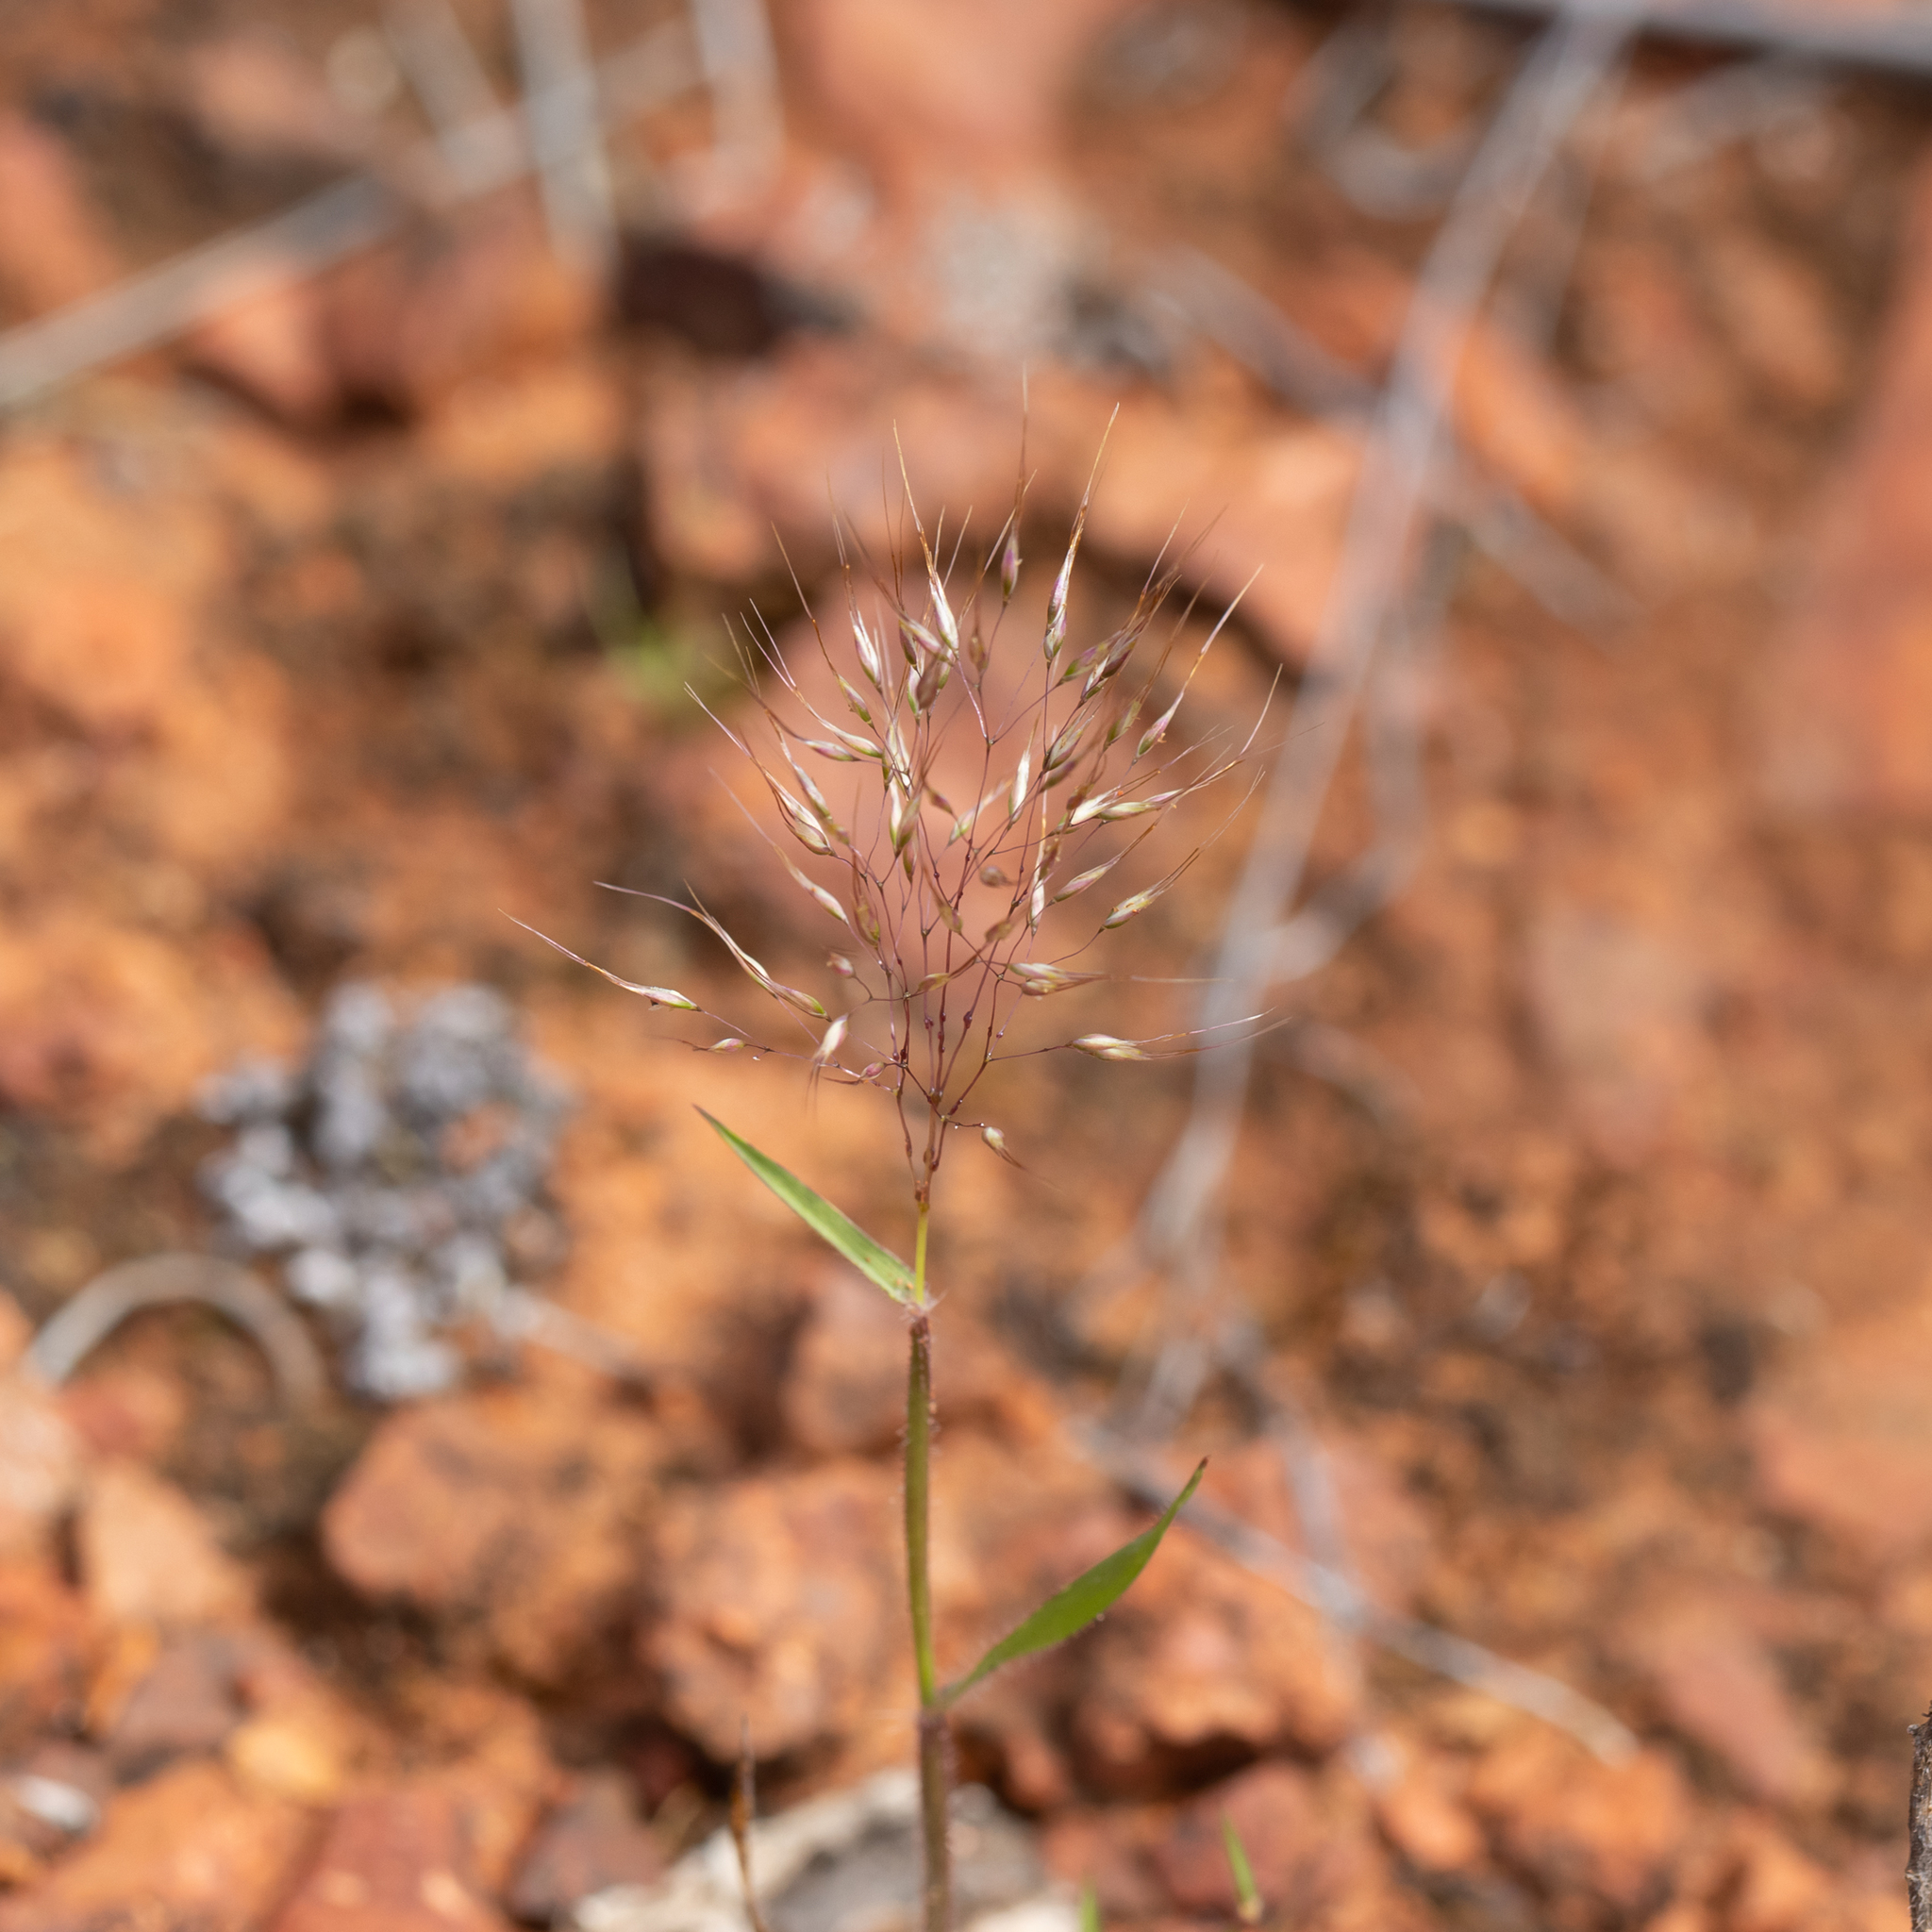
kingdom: Plantae
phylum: Tracheophyta
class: Liliopsida
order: Poales
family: Poaceae
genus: Pentameris
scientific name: Pentameris airoides
